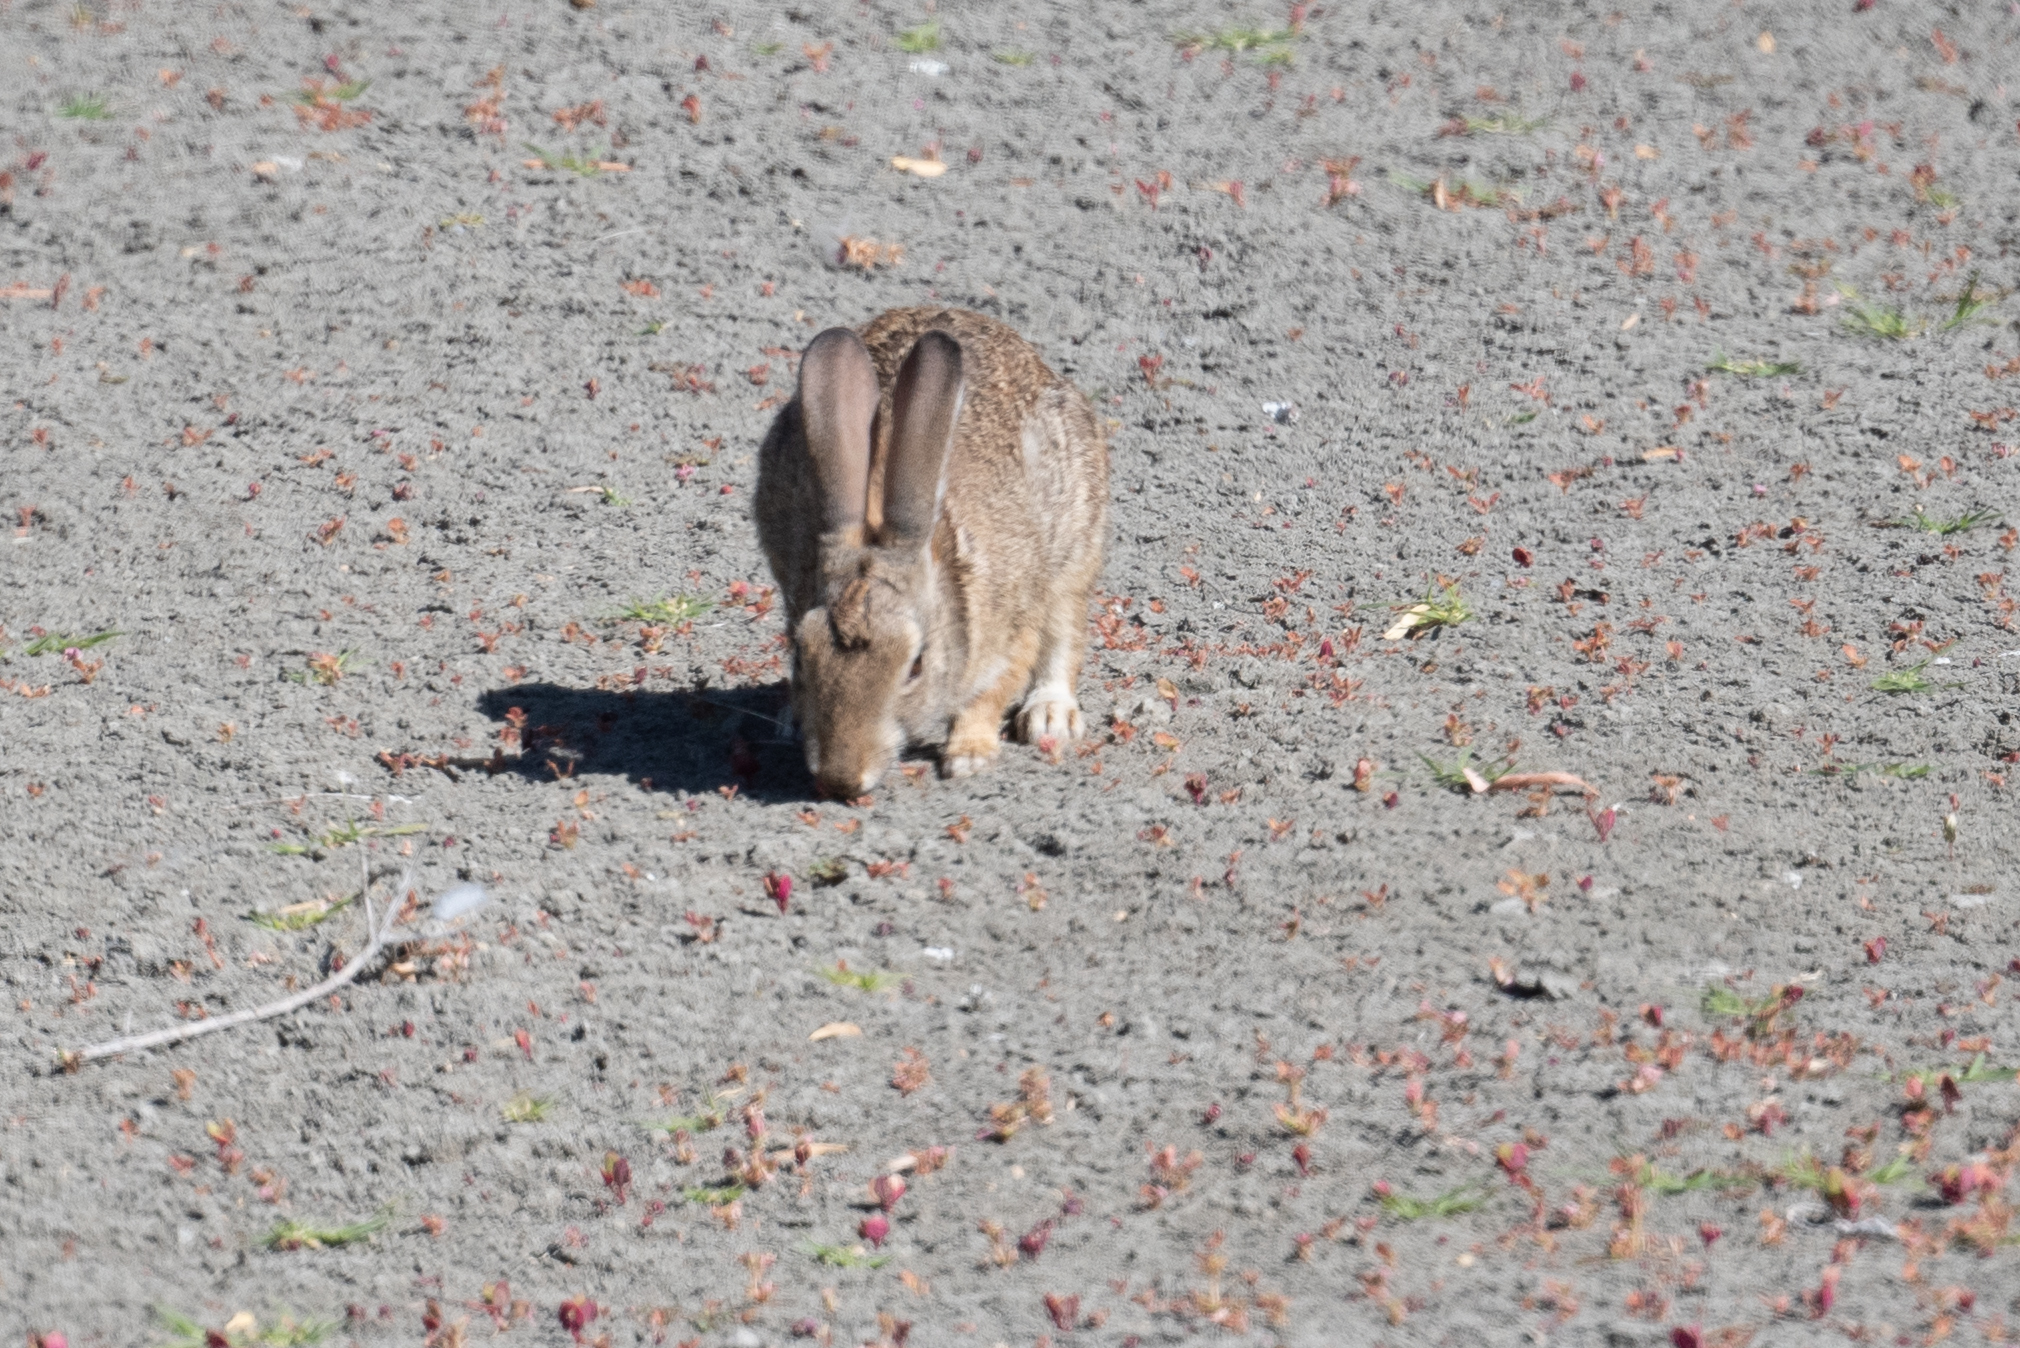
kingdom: Animalia
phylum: Chordata
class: Mammalia
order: Lagomorpha
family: Leporidae
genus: Sylvilagus
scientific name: Sylvilagus audubonii
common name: Desert cottontail
